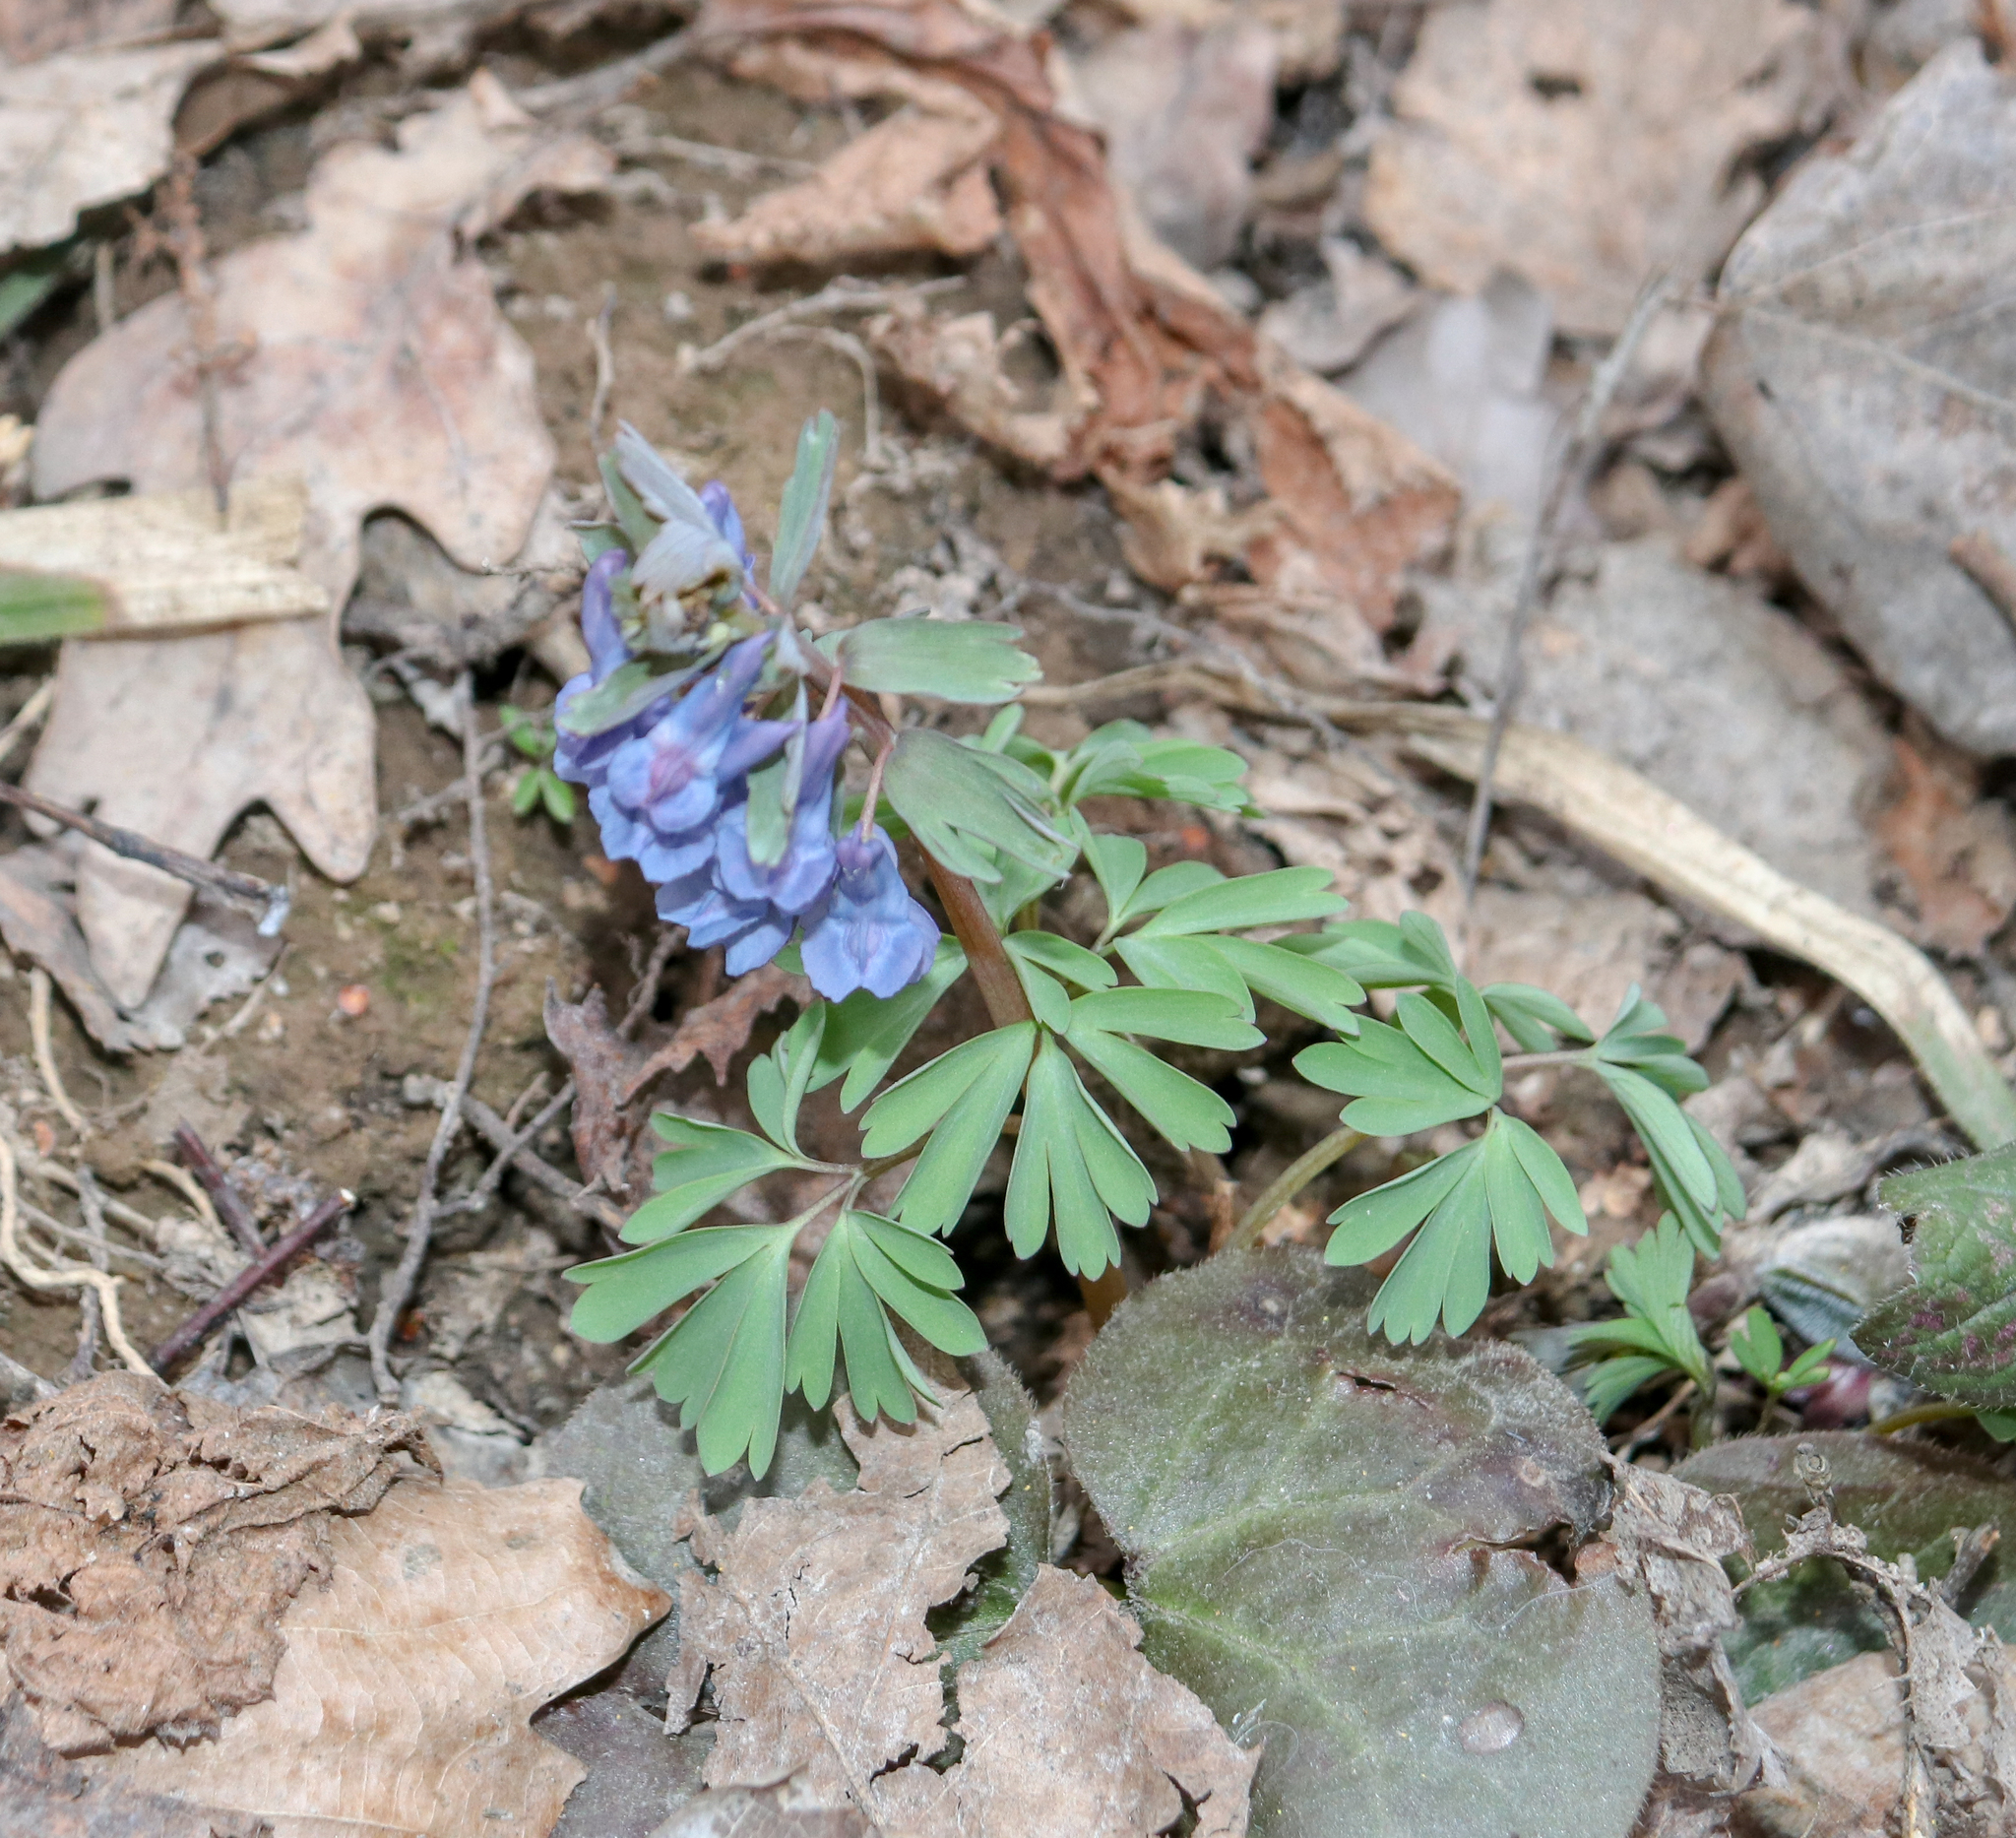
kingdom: Plantae
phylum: Tracheophyta
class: Magnoliopsida
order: Ranunculales
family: Papaveraceae
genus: Corydalis
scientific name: Corydalis solida
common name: Bird-in-a-bush
